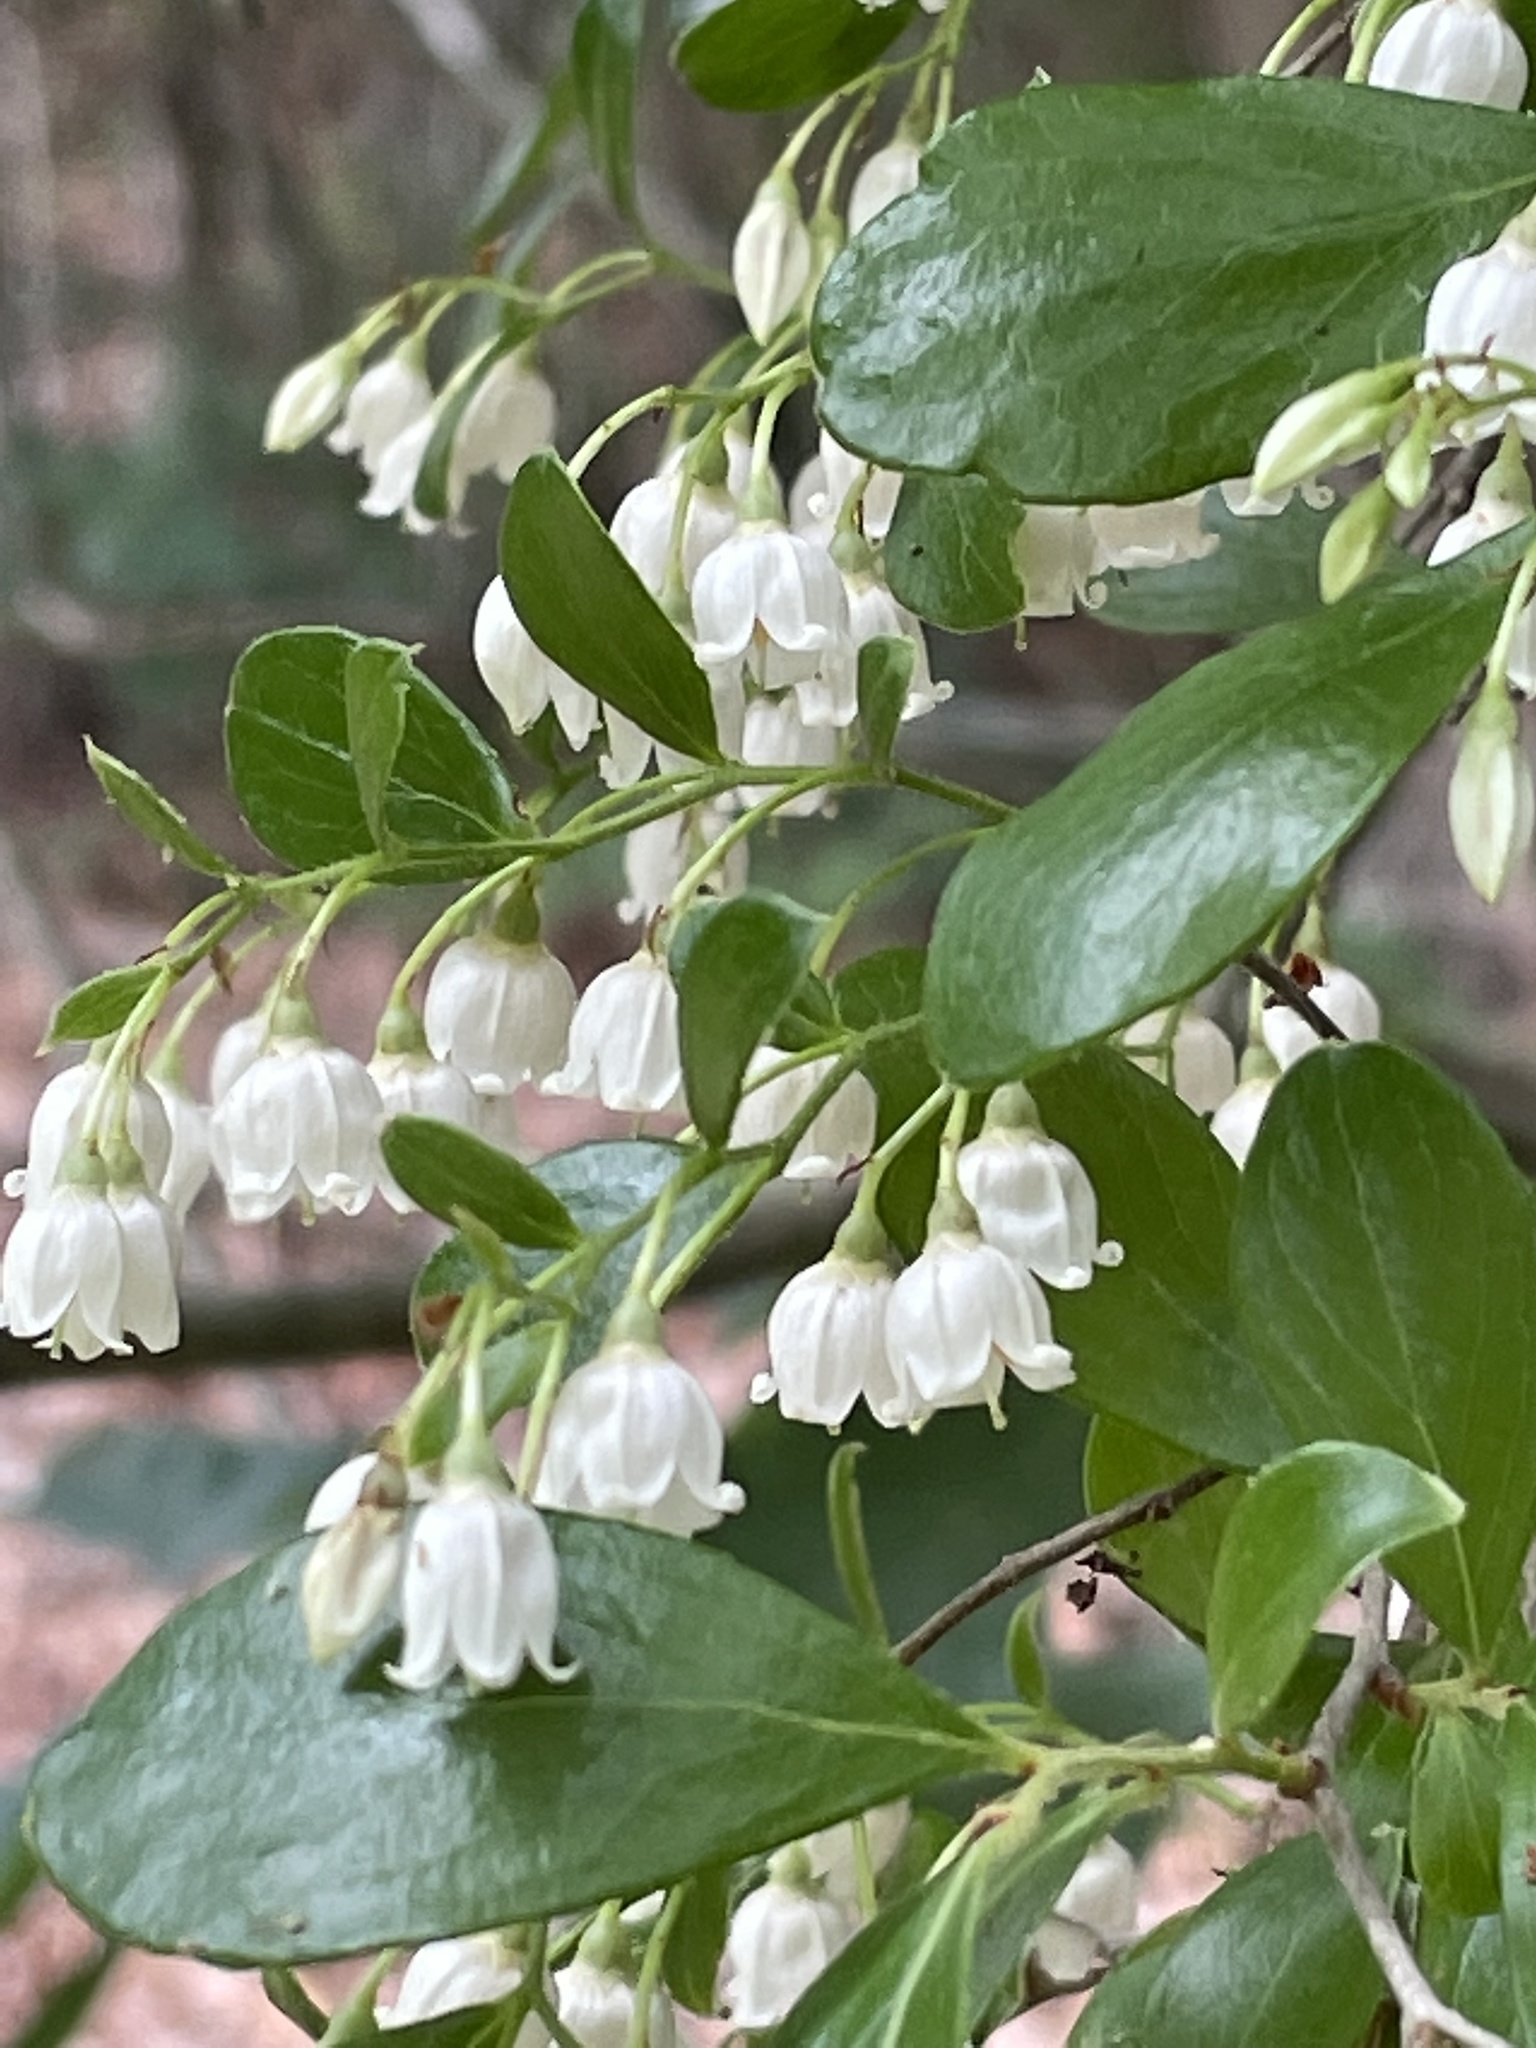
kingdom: Plantae
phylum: Tracheophyta
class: Magnoliopsida
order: Ericales
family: Ericaceae
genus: Vaccinium
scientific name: Vaccinium arboreum
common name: Farkleberry
